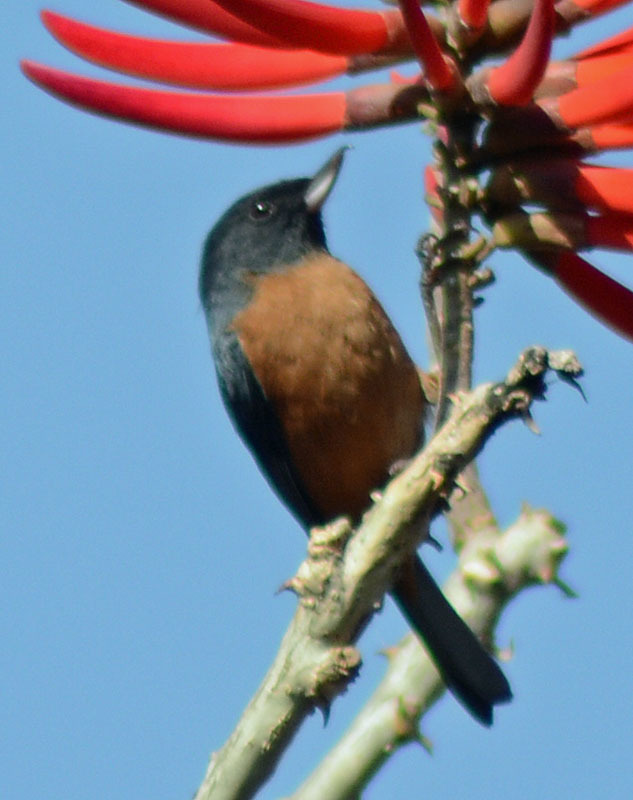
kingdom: Animalia
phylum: Chordata
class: Aves
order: Passeriformes
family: Thraupidae
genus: Diglossa
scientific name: Diglossa baritula
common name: Cinnamon-bellied flowerpiercer
